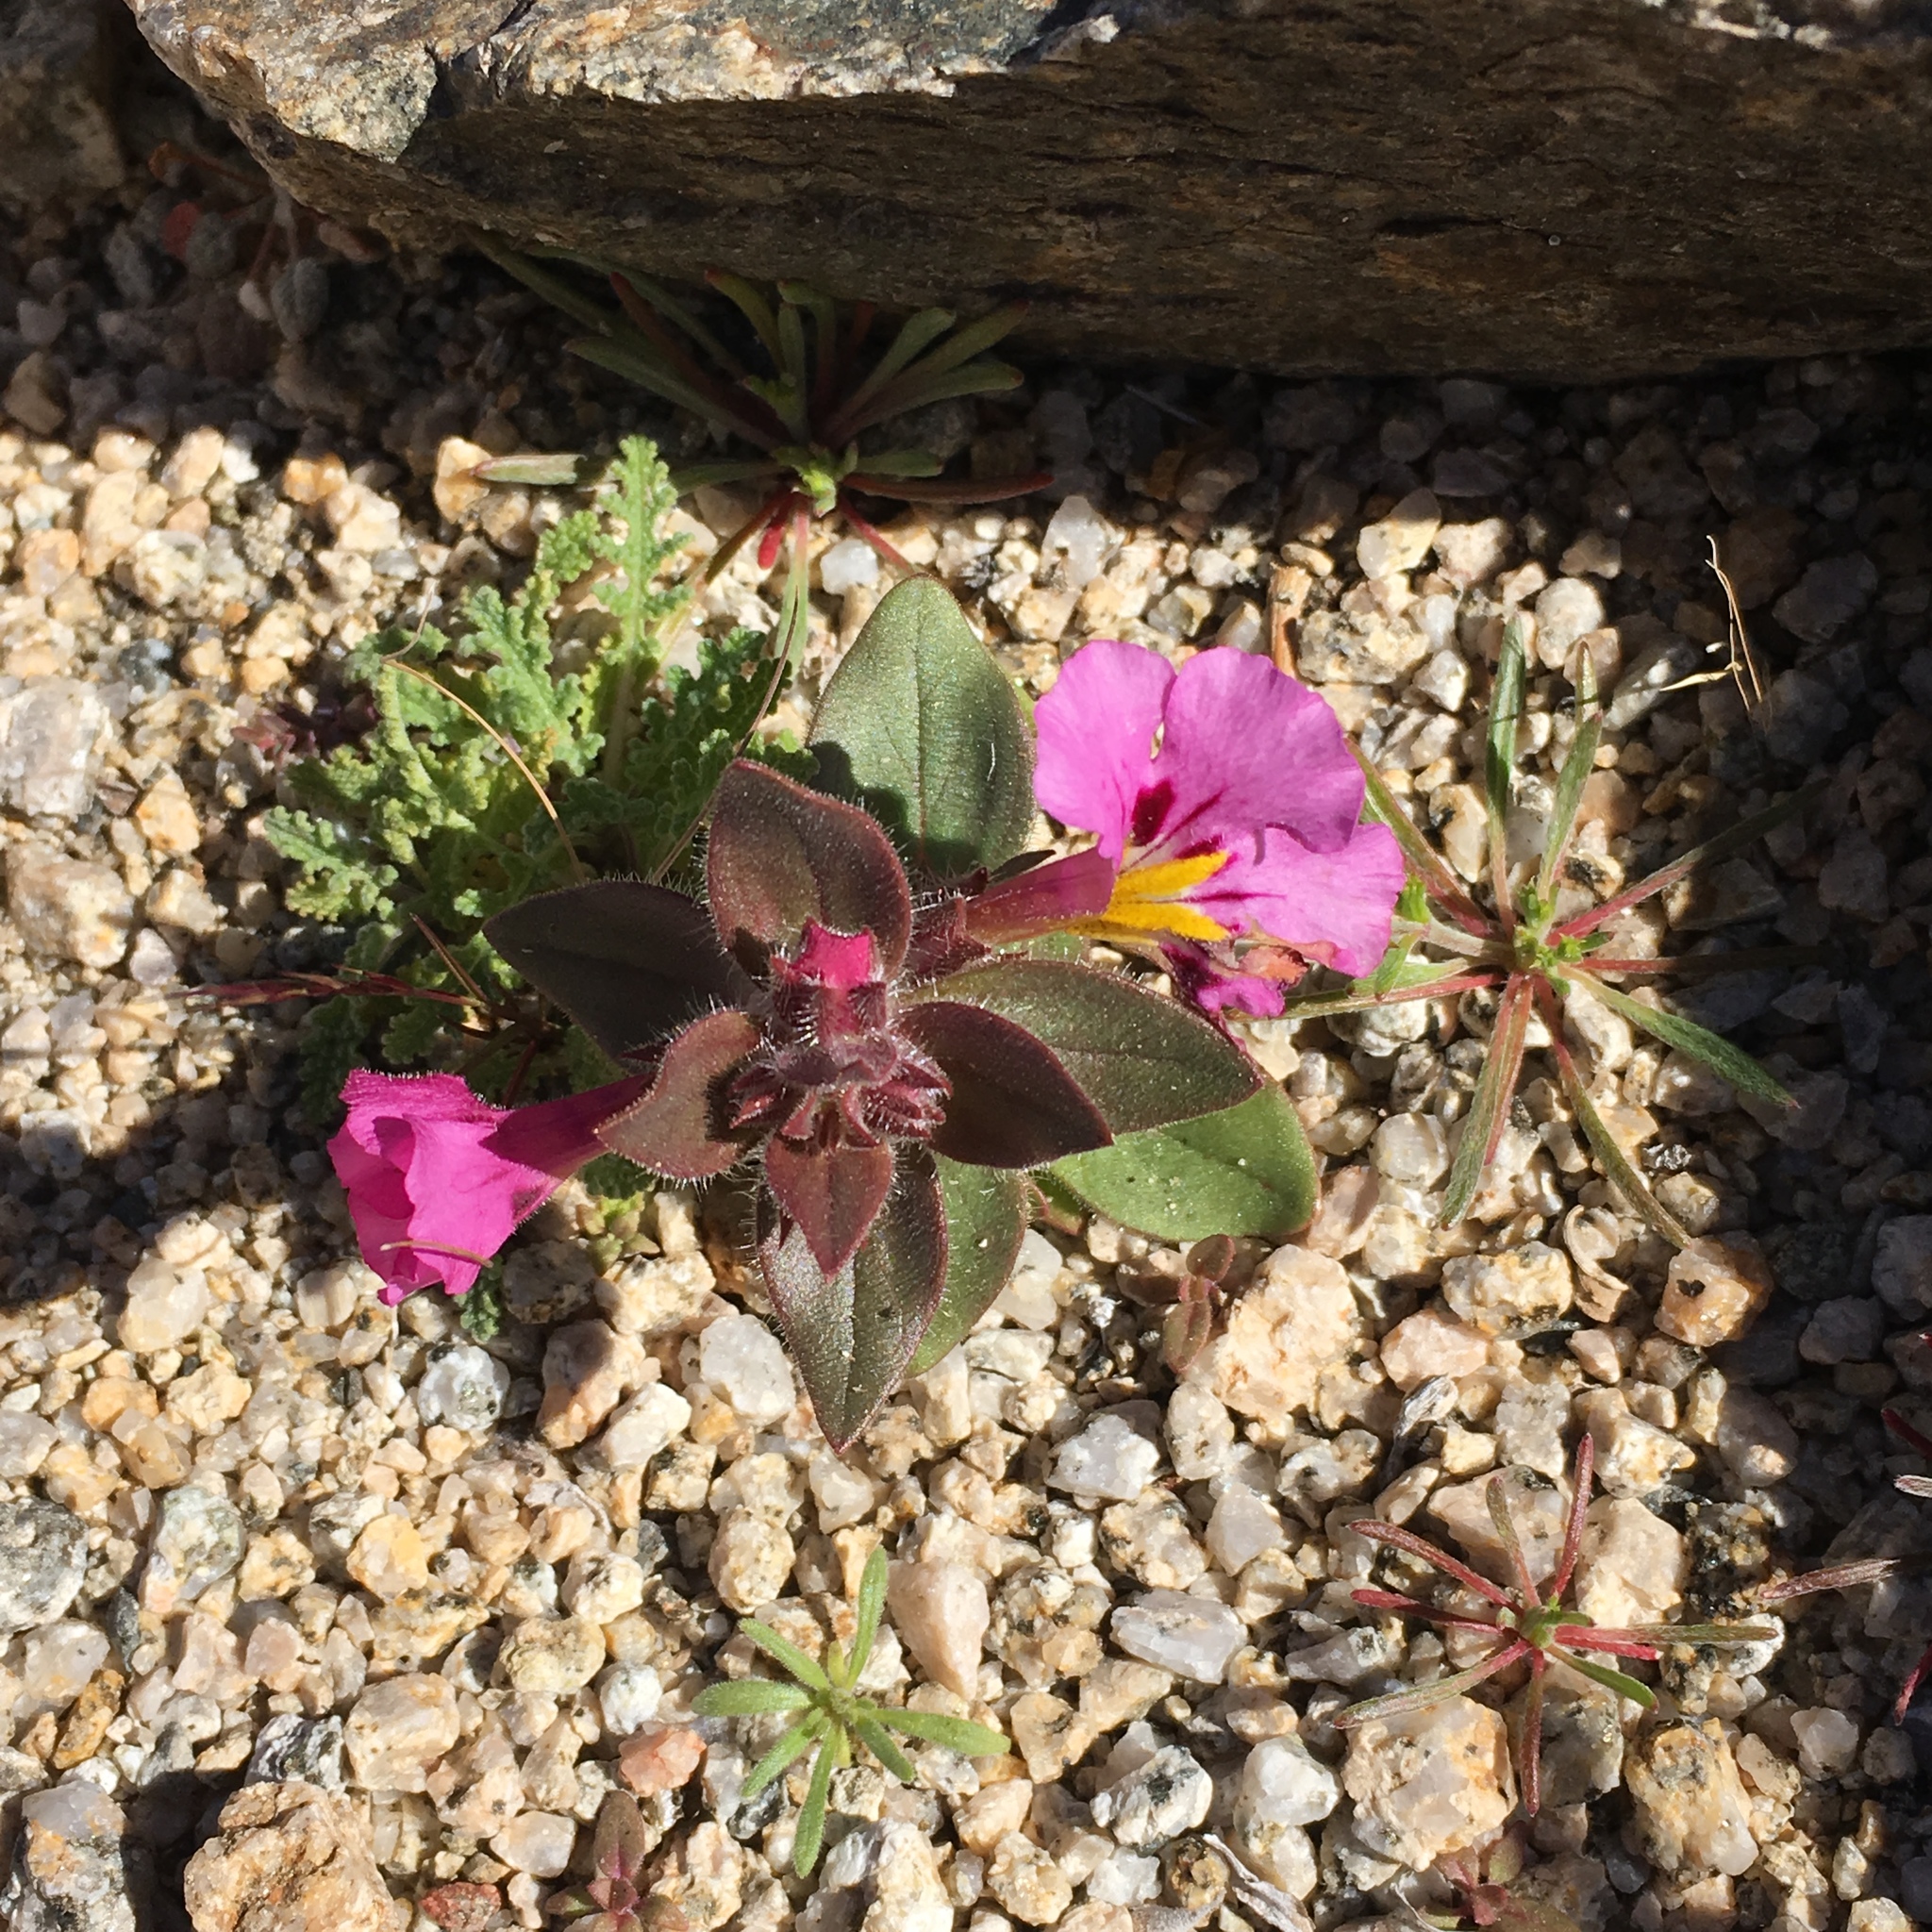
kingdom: Plantae
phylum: Tracheophyta
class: Magnoliopsida
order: Lamiales
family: Phrymaceae
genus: Diplacus
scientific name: Diplacus bigelovii
